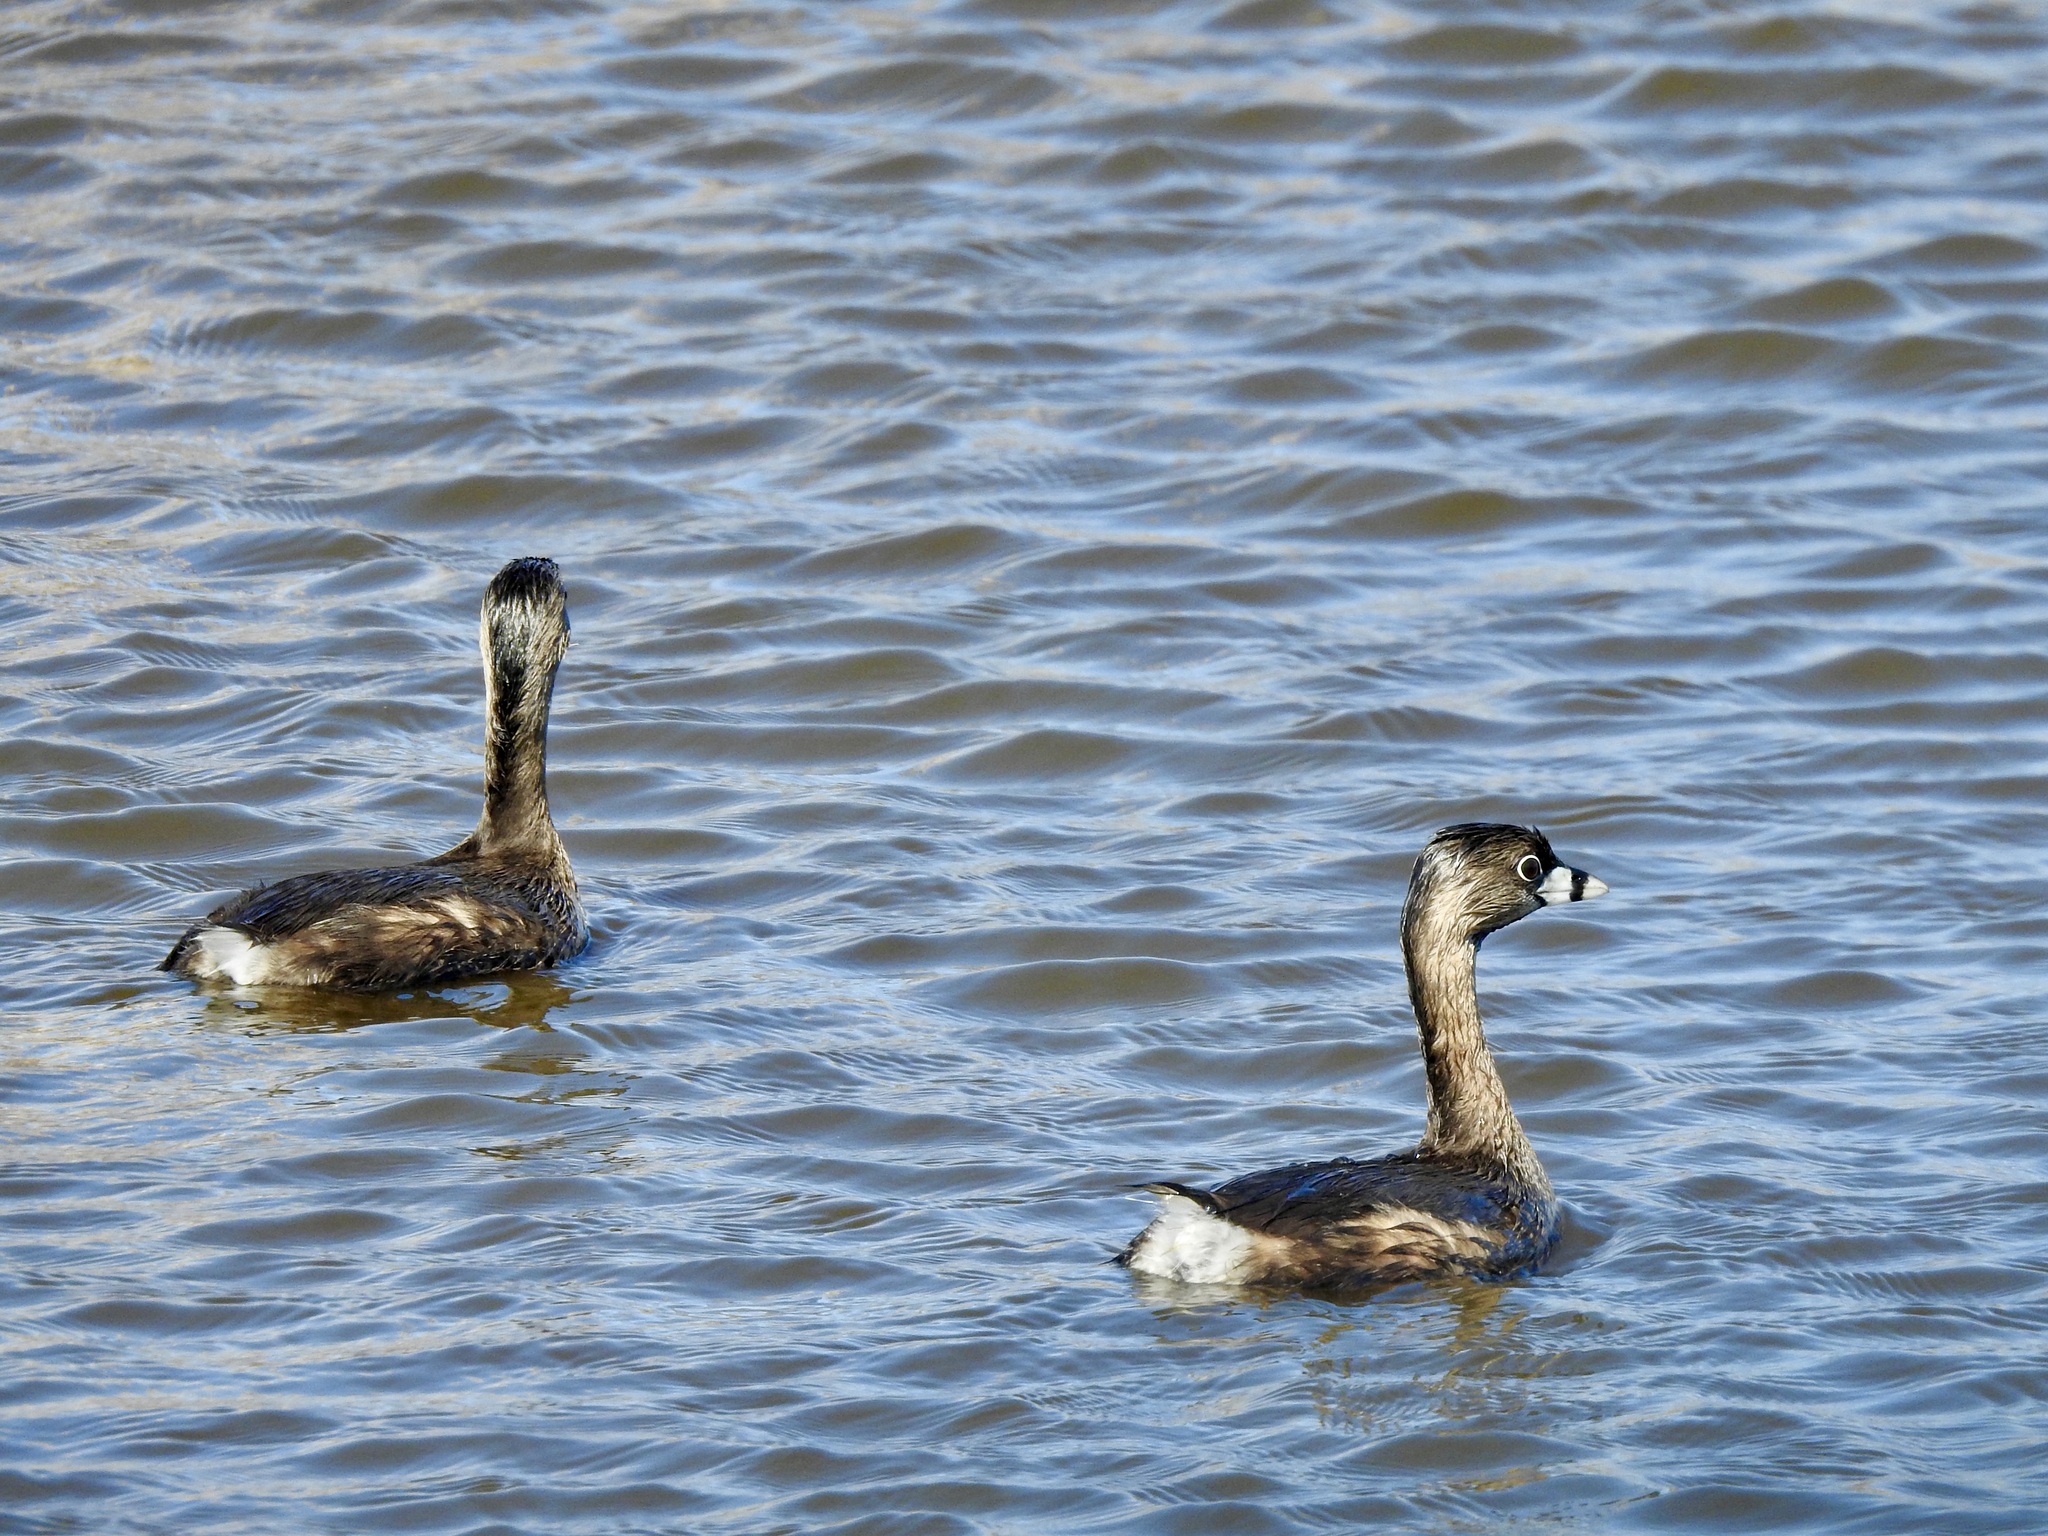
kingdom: Animalia
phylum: Chordata
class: Aves
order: Podicipediformes
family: Podicipedidae
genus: Podilymbus
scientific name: Podilymbus podiceps
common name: Pied-billed grebe
